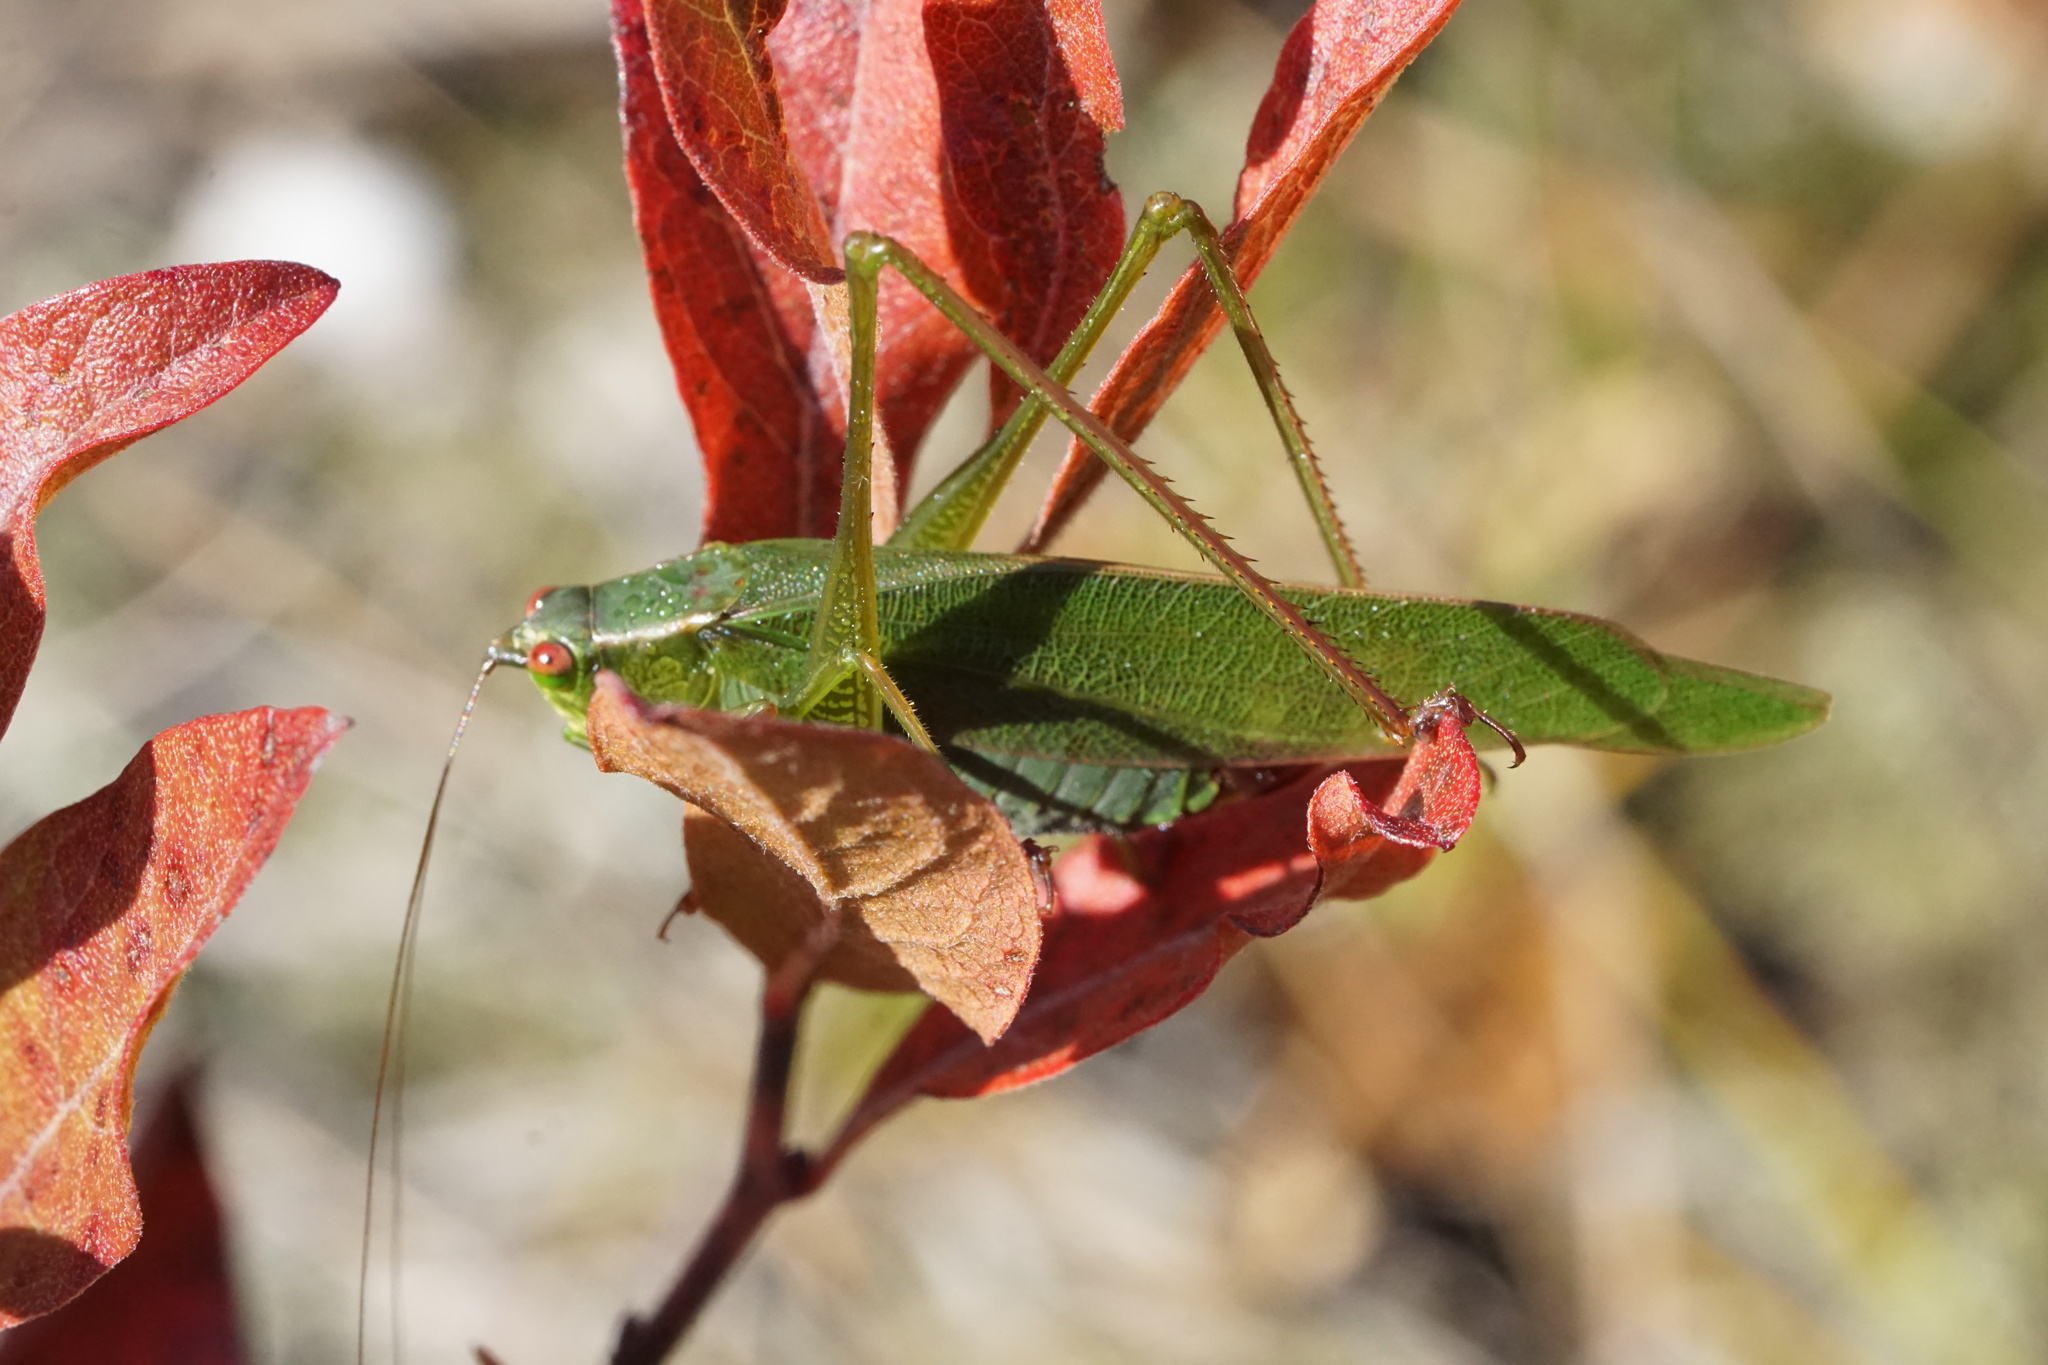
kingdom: Animalia
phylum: Arthropoda
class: Insecta
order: Orthoptera
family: Tettigoniidae
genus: Scudderia
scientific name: Scudderia furcata
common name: Fork-tailed bush katydid
